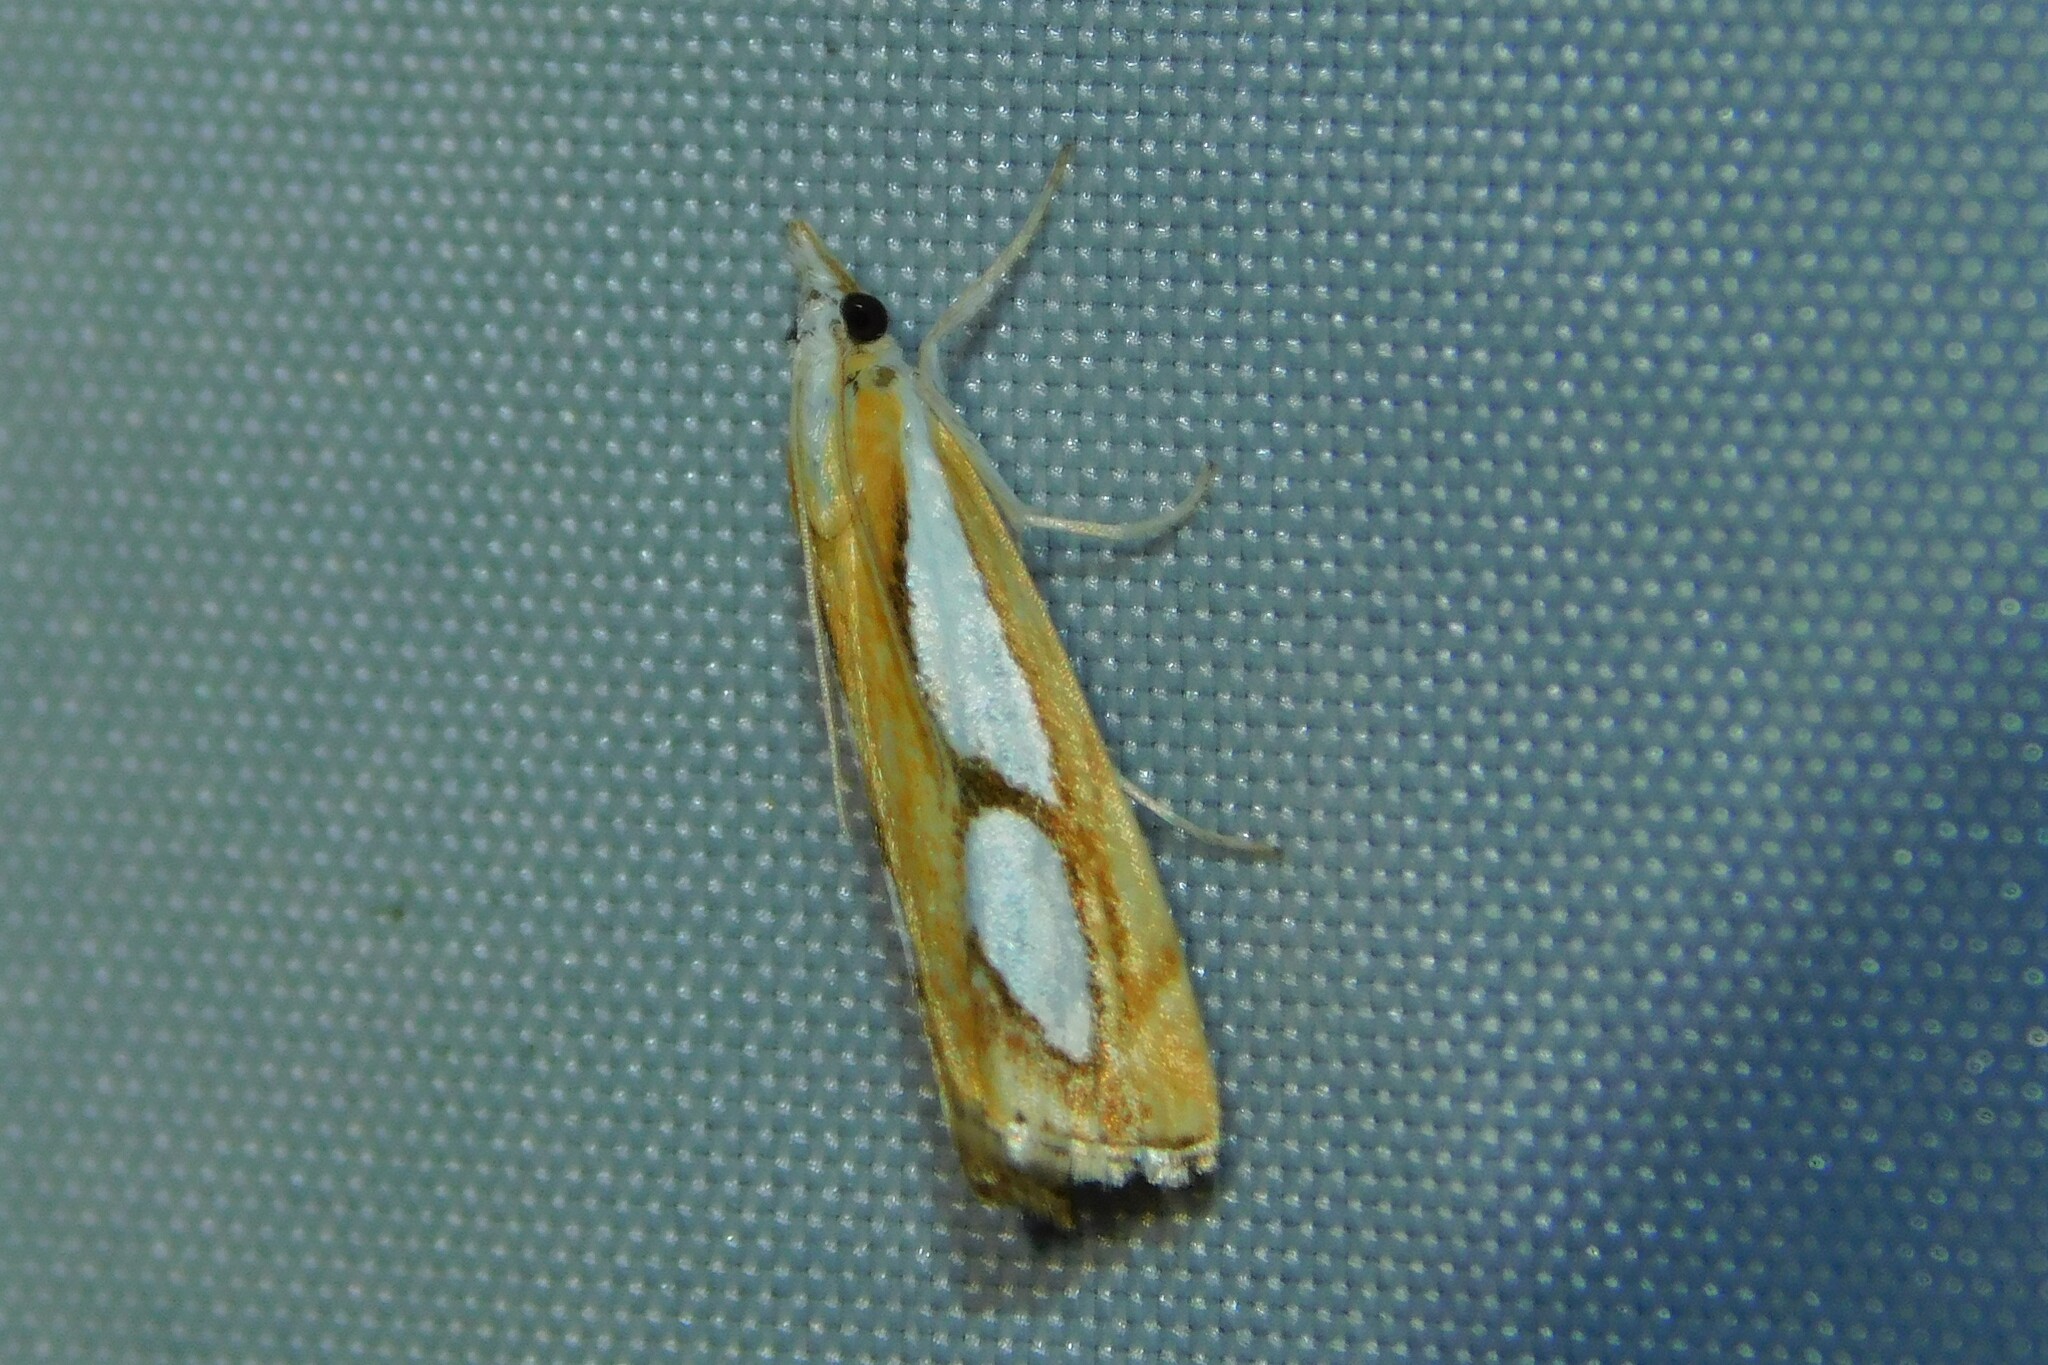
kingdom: Animalia
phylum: Arthropoda
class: Insecta
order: Lepidoptera
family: Crambidae
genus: Catoptria
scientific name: Catoptria pinella
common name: Pearl grass-veneer
